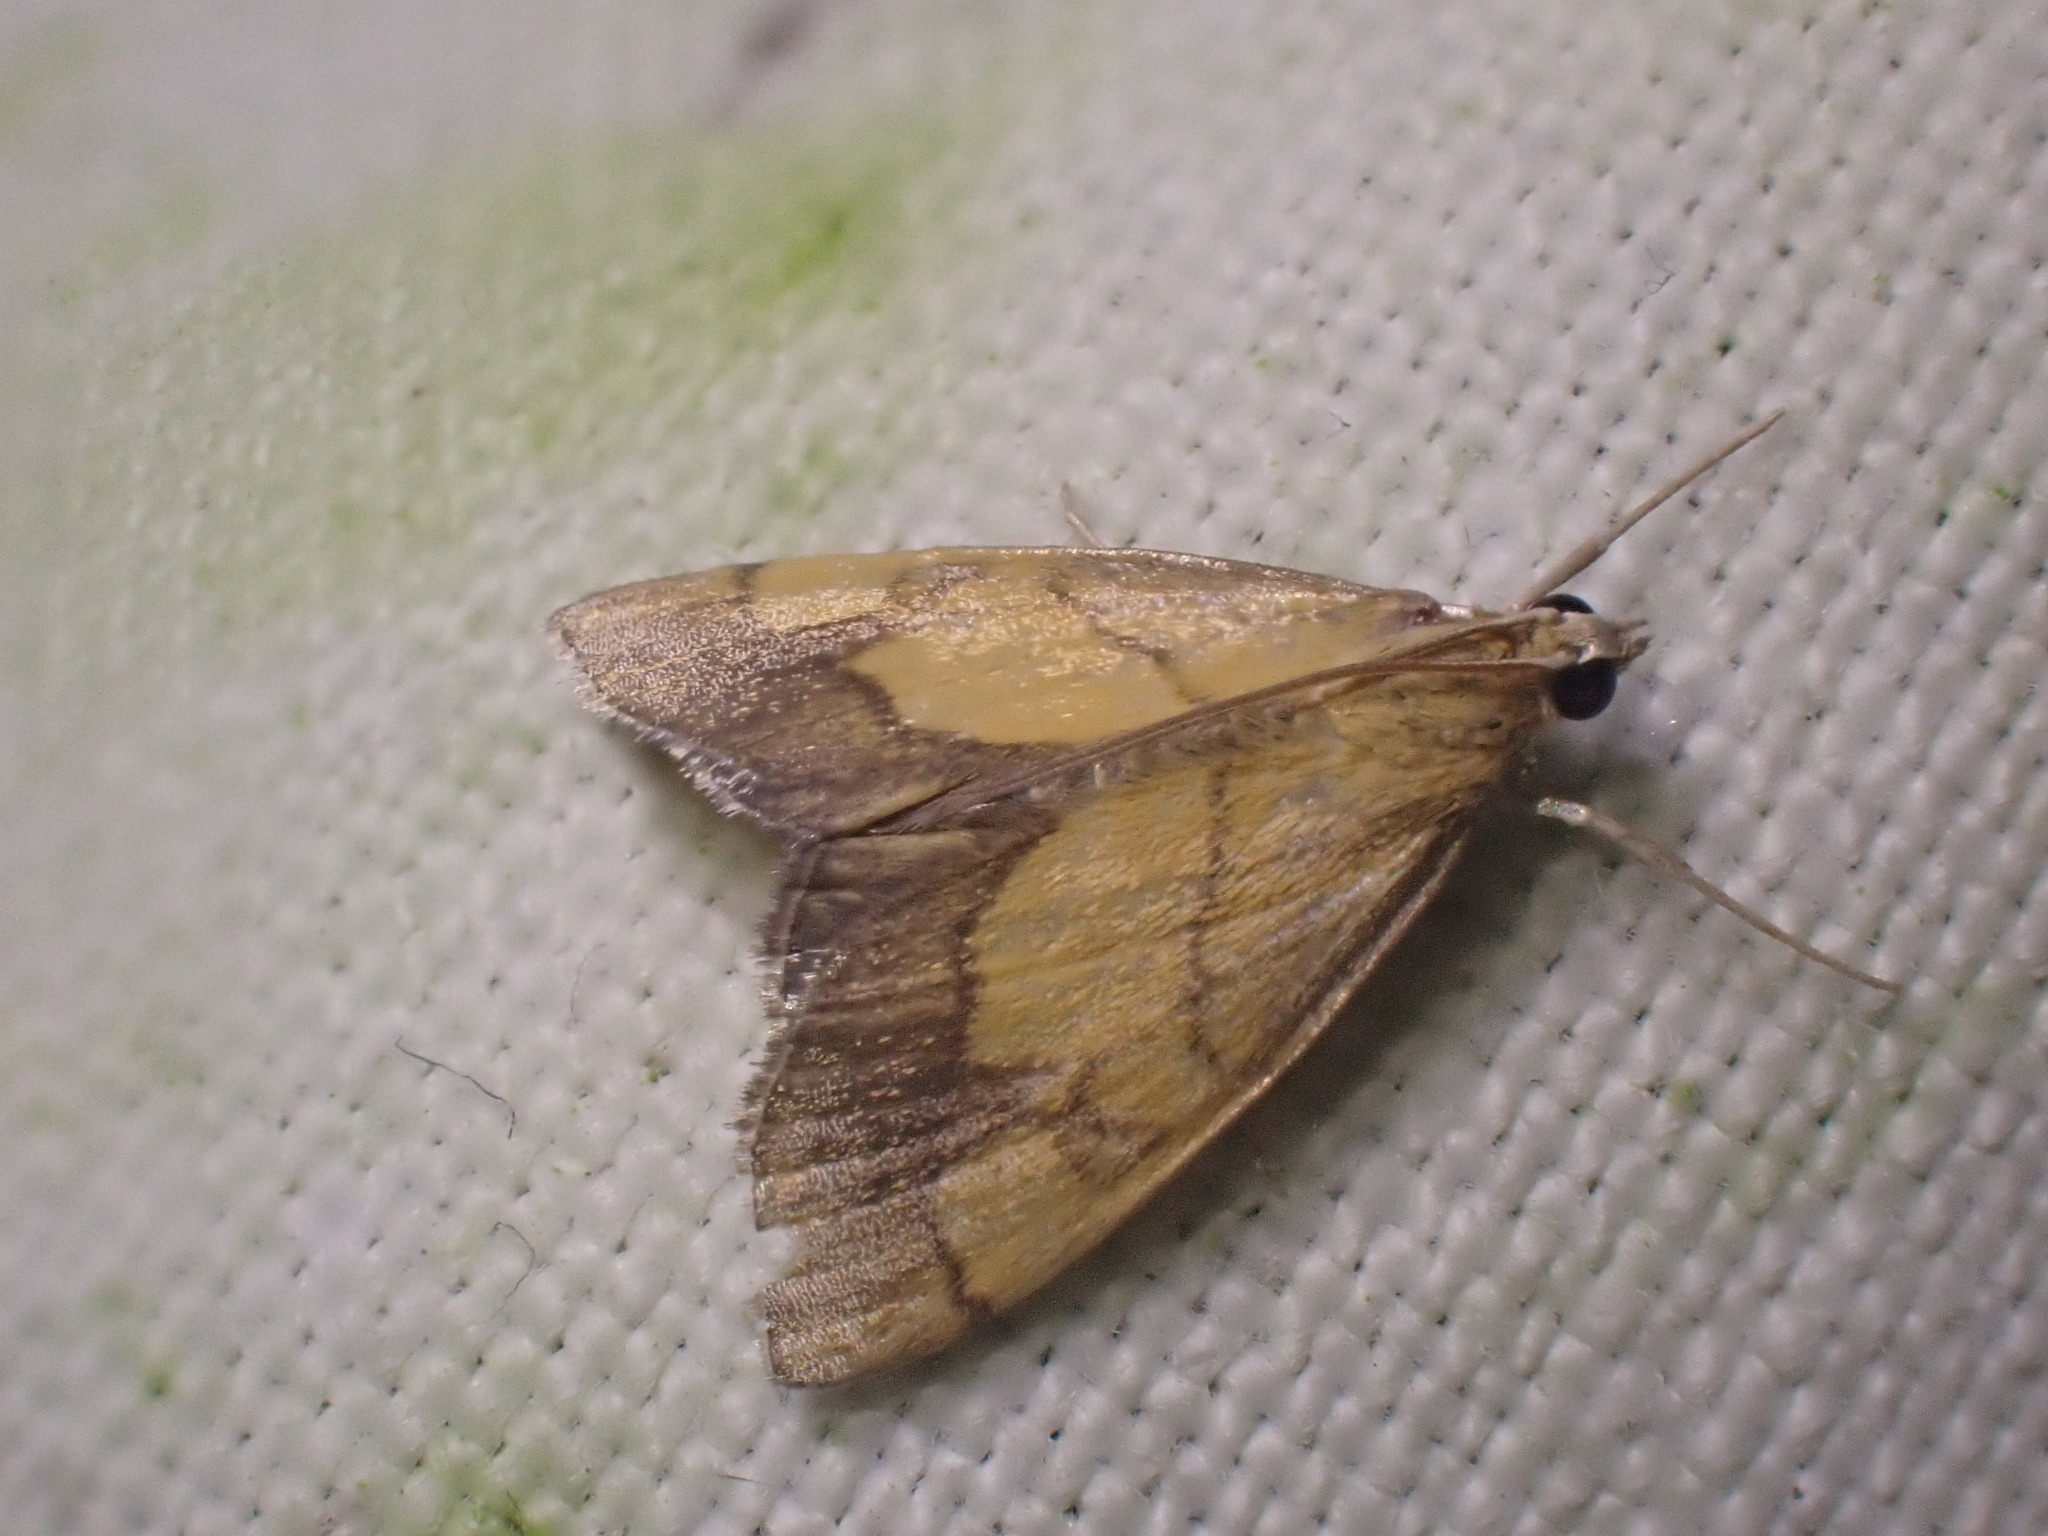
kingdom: Animalia
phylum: Arthropoda
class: Insecta
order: Lepidoptera
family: Crambidae
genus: Evergestis
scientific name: Evergestis limbata
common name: Dark bordered pearl
